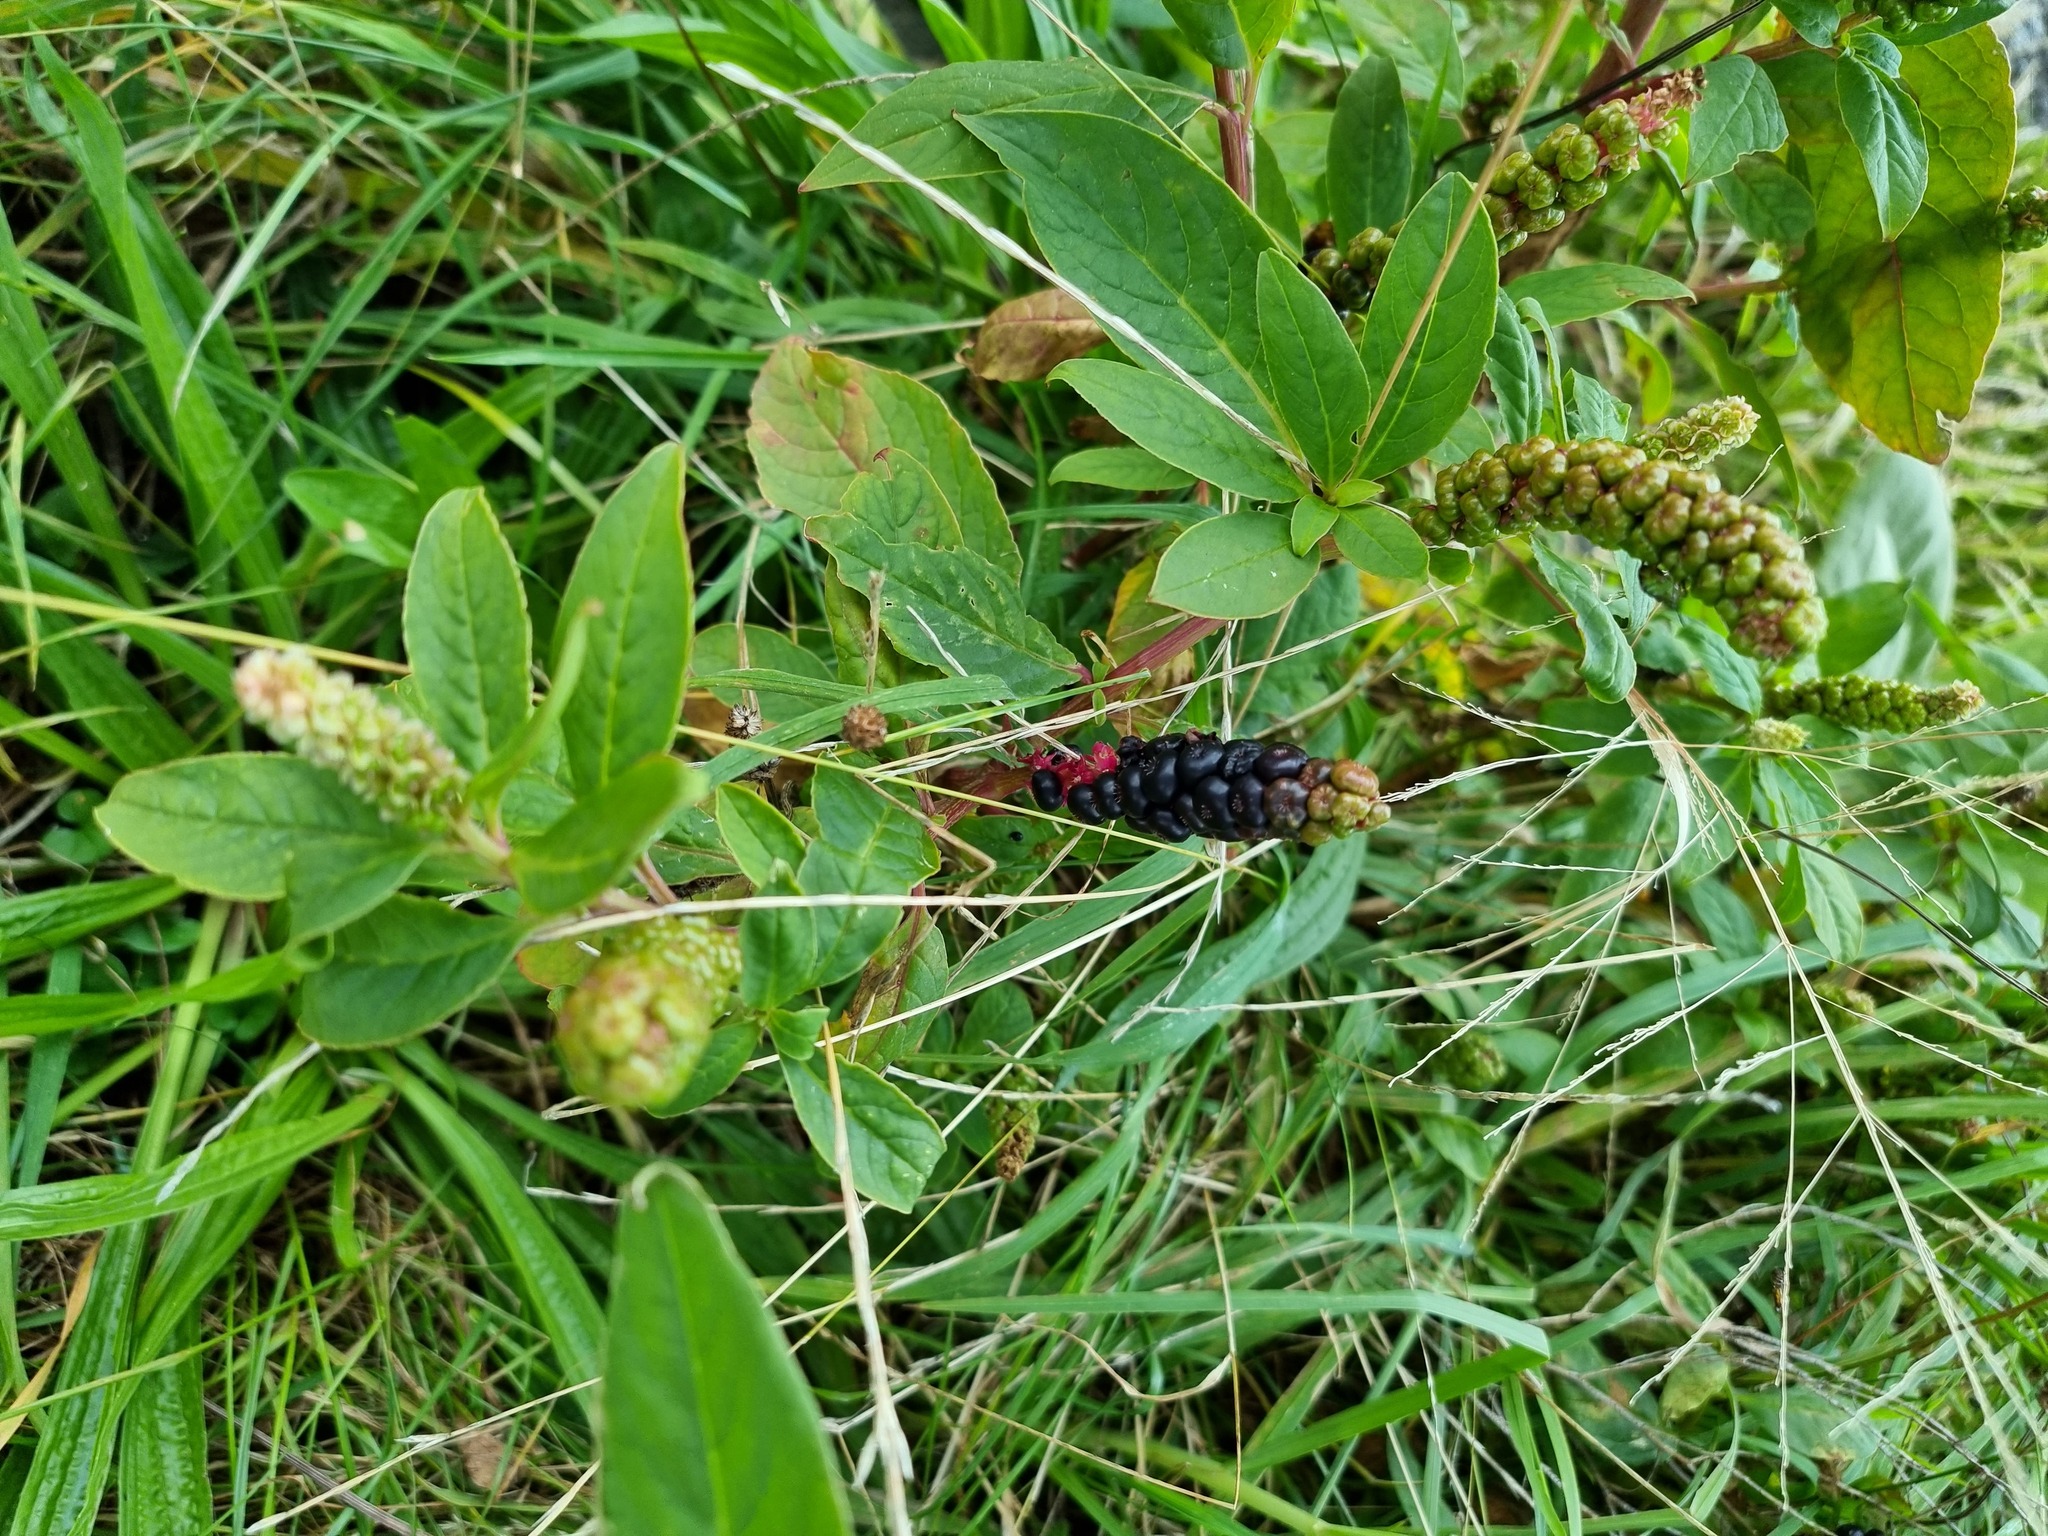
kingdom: Plantae
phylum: Tracheophyta
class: Magnoliopsida
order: Caryophyllales
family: Phytolaccaceae
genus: Phytolacca
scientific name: Phytolacca icosandra
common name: Button pokeweed
